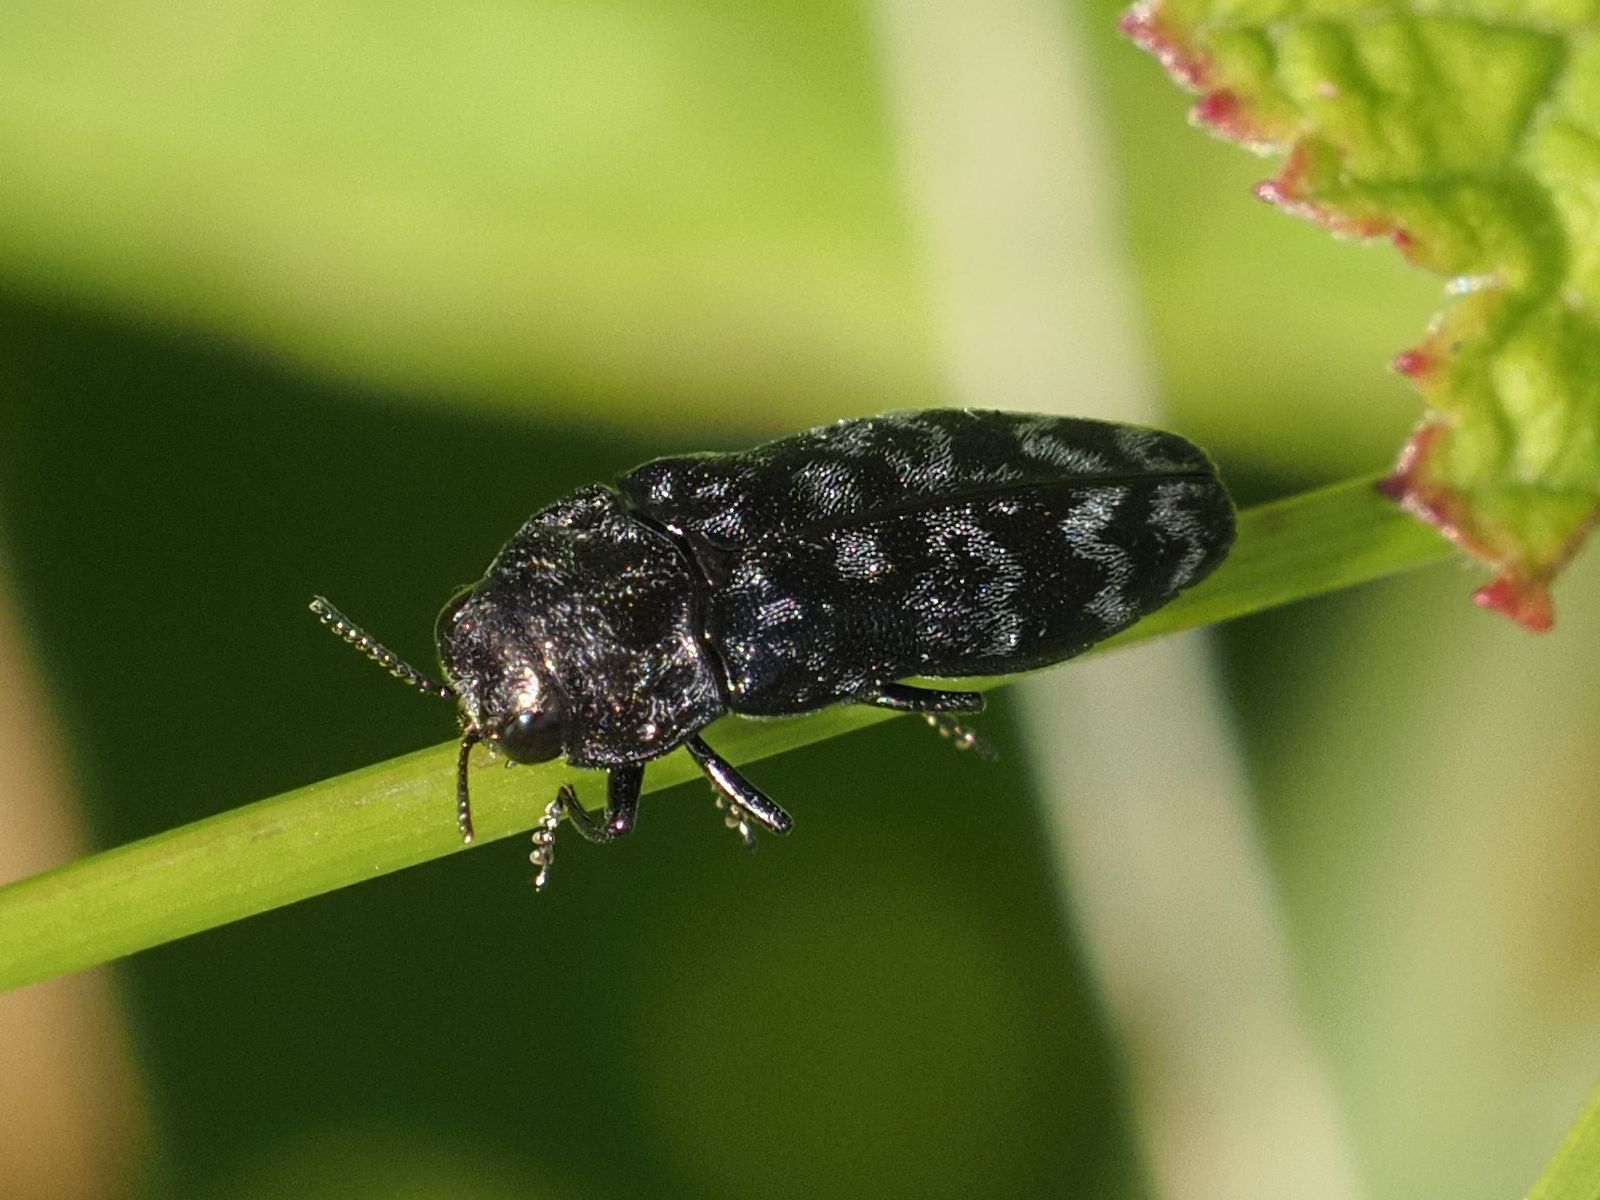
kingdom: Animalia
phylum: Arthropoda
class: Insecta
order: Coleoptera
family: Buprestidae
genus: Coraebus
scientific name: Coraebus rubi
